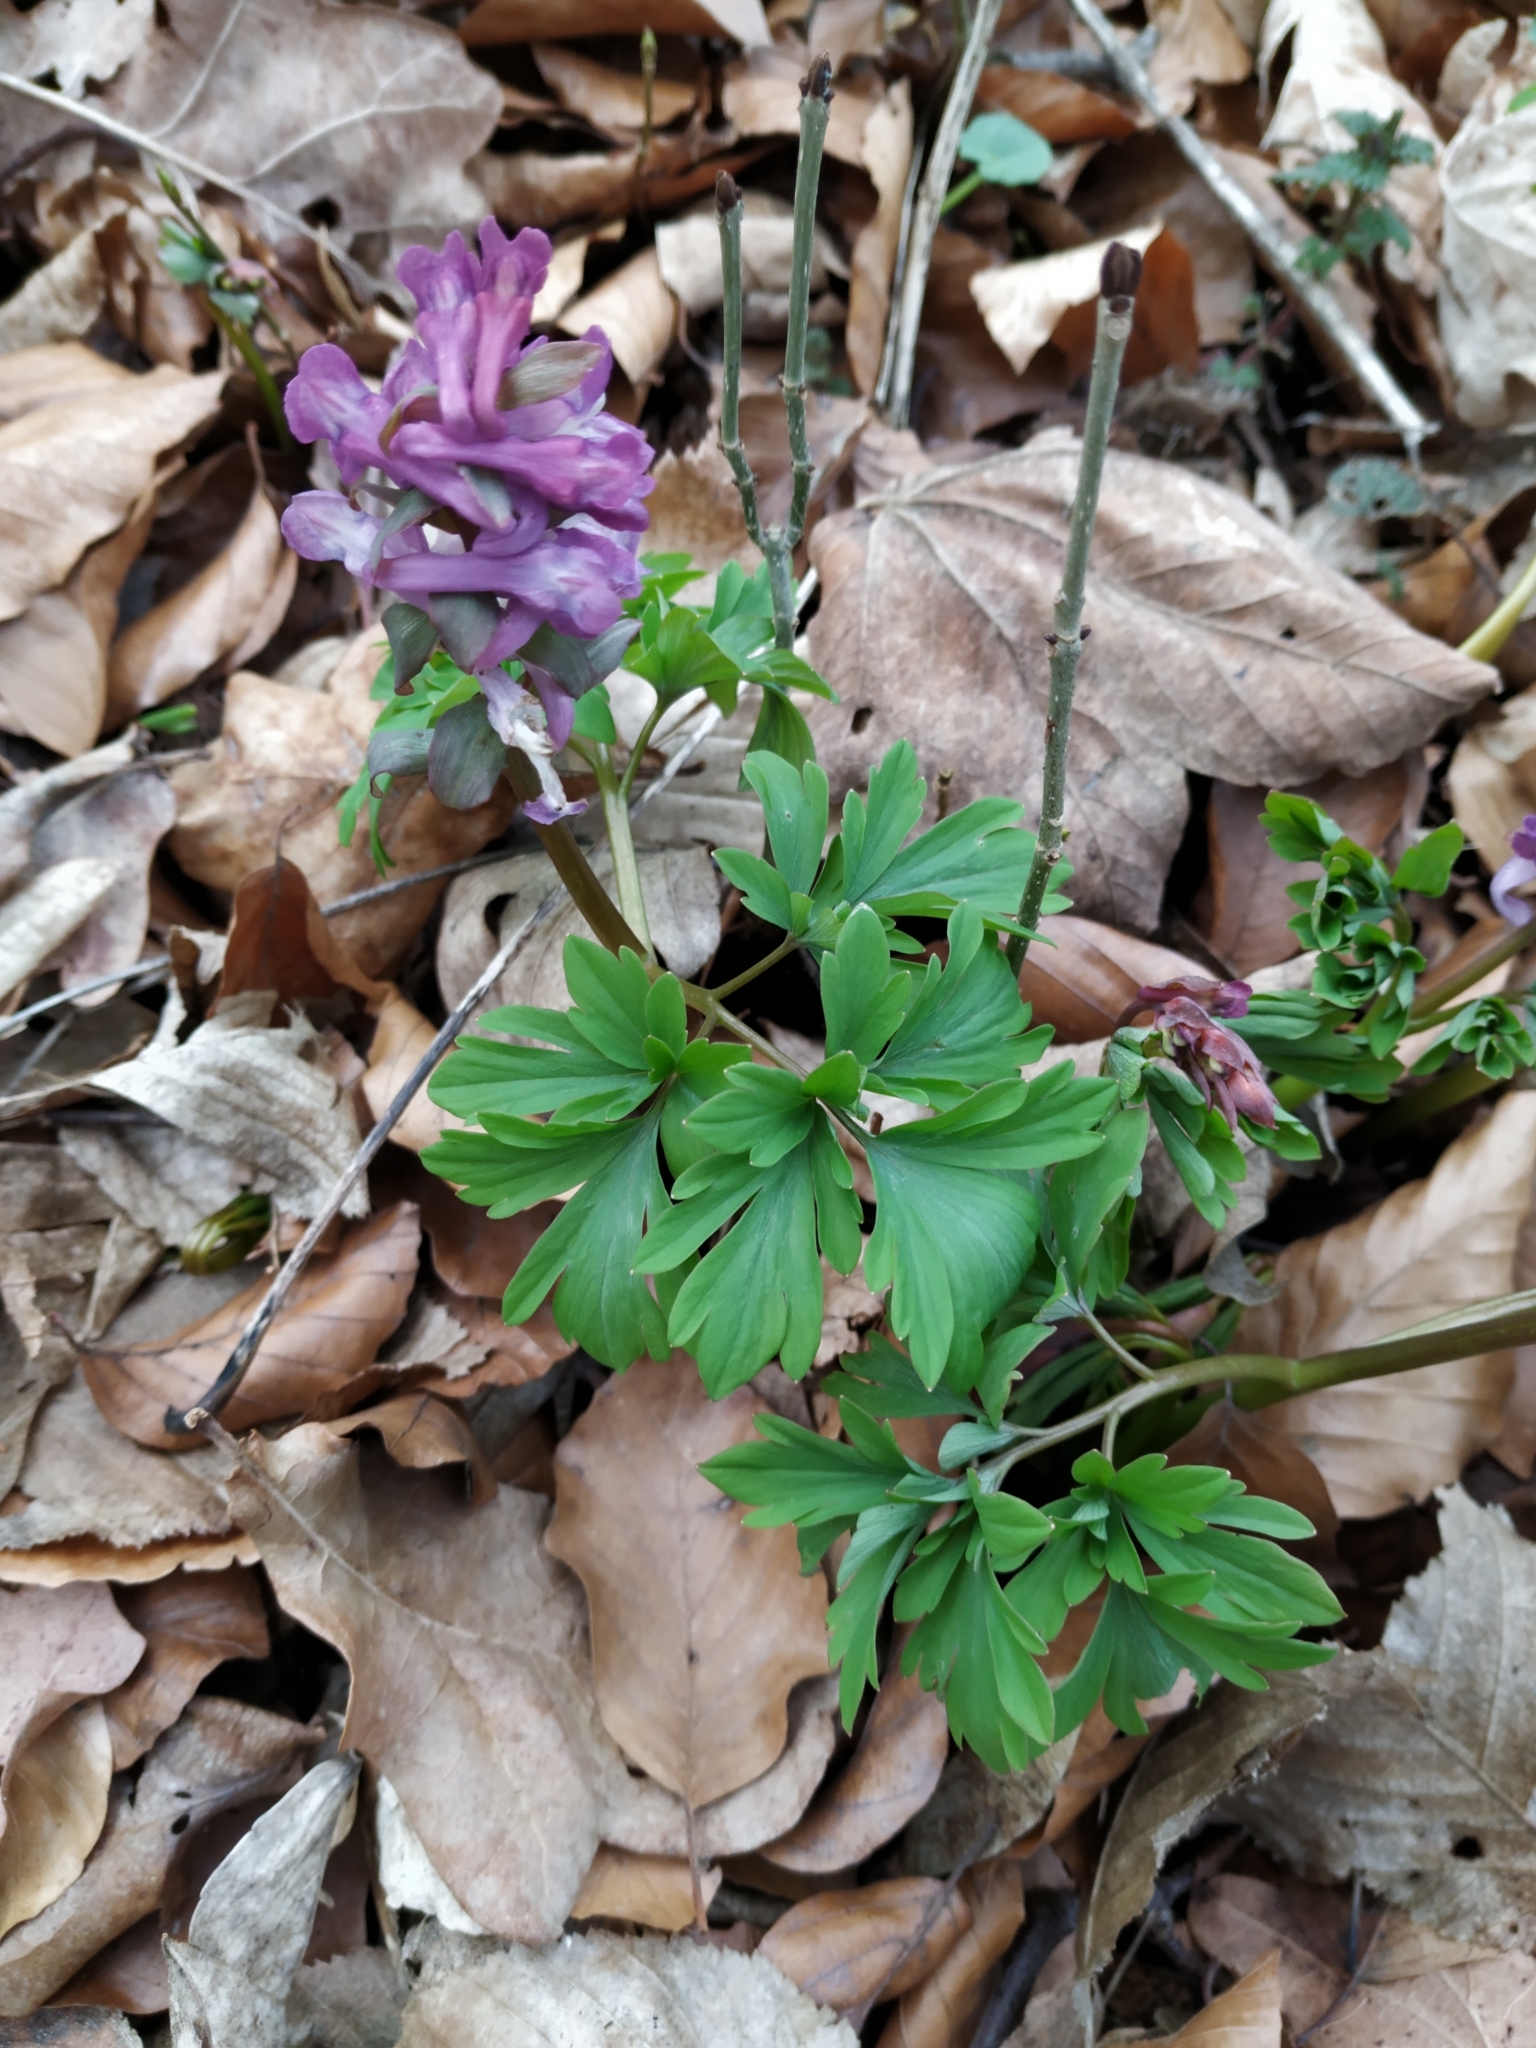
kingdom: Plantae
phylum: Tracheophyta
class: Magnoliopsida
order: Ranunculales
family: Papaveraceae
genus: Corydalis
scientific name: Corydalis cava
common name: Hollowroot
